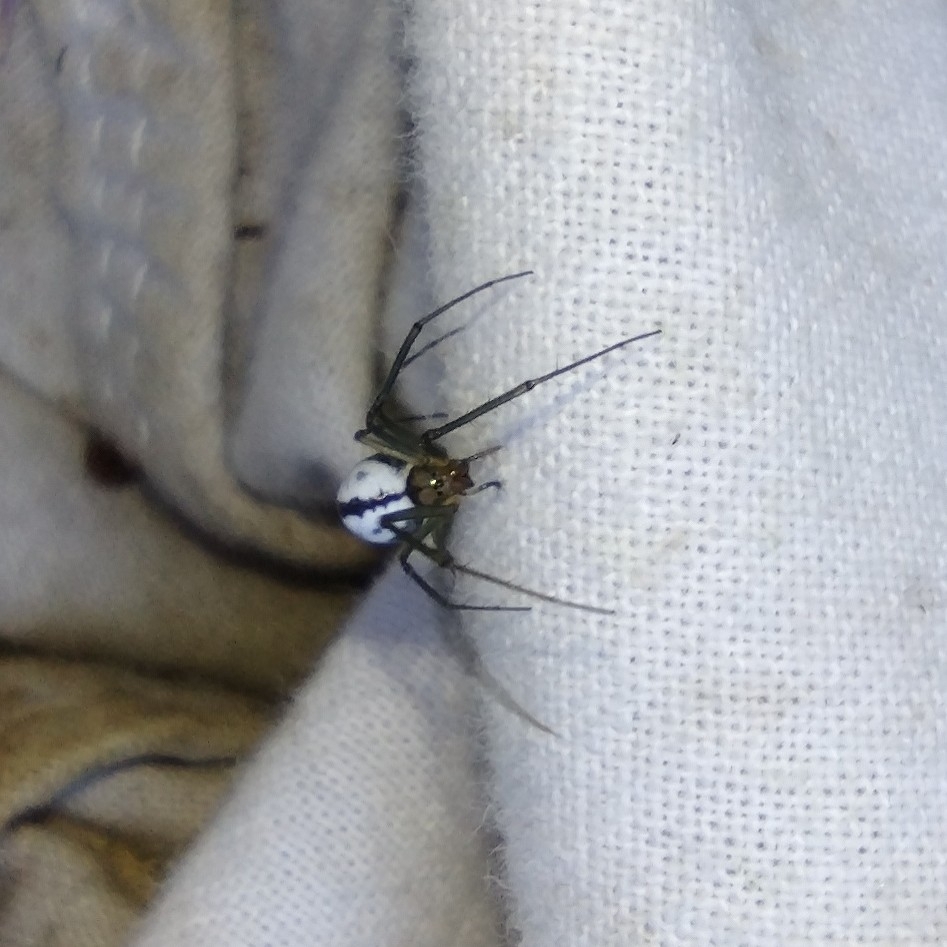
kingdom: Animalia
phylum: Arthropoda
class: Arachnida
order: Araneae
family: Linyphiidae
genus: Neriene
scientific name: Neriene emphana
